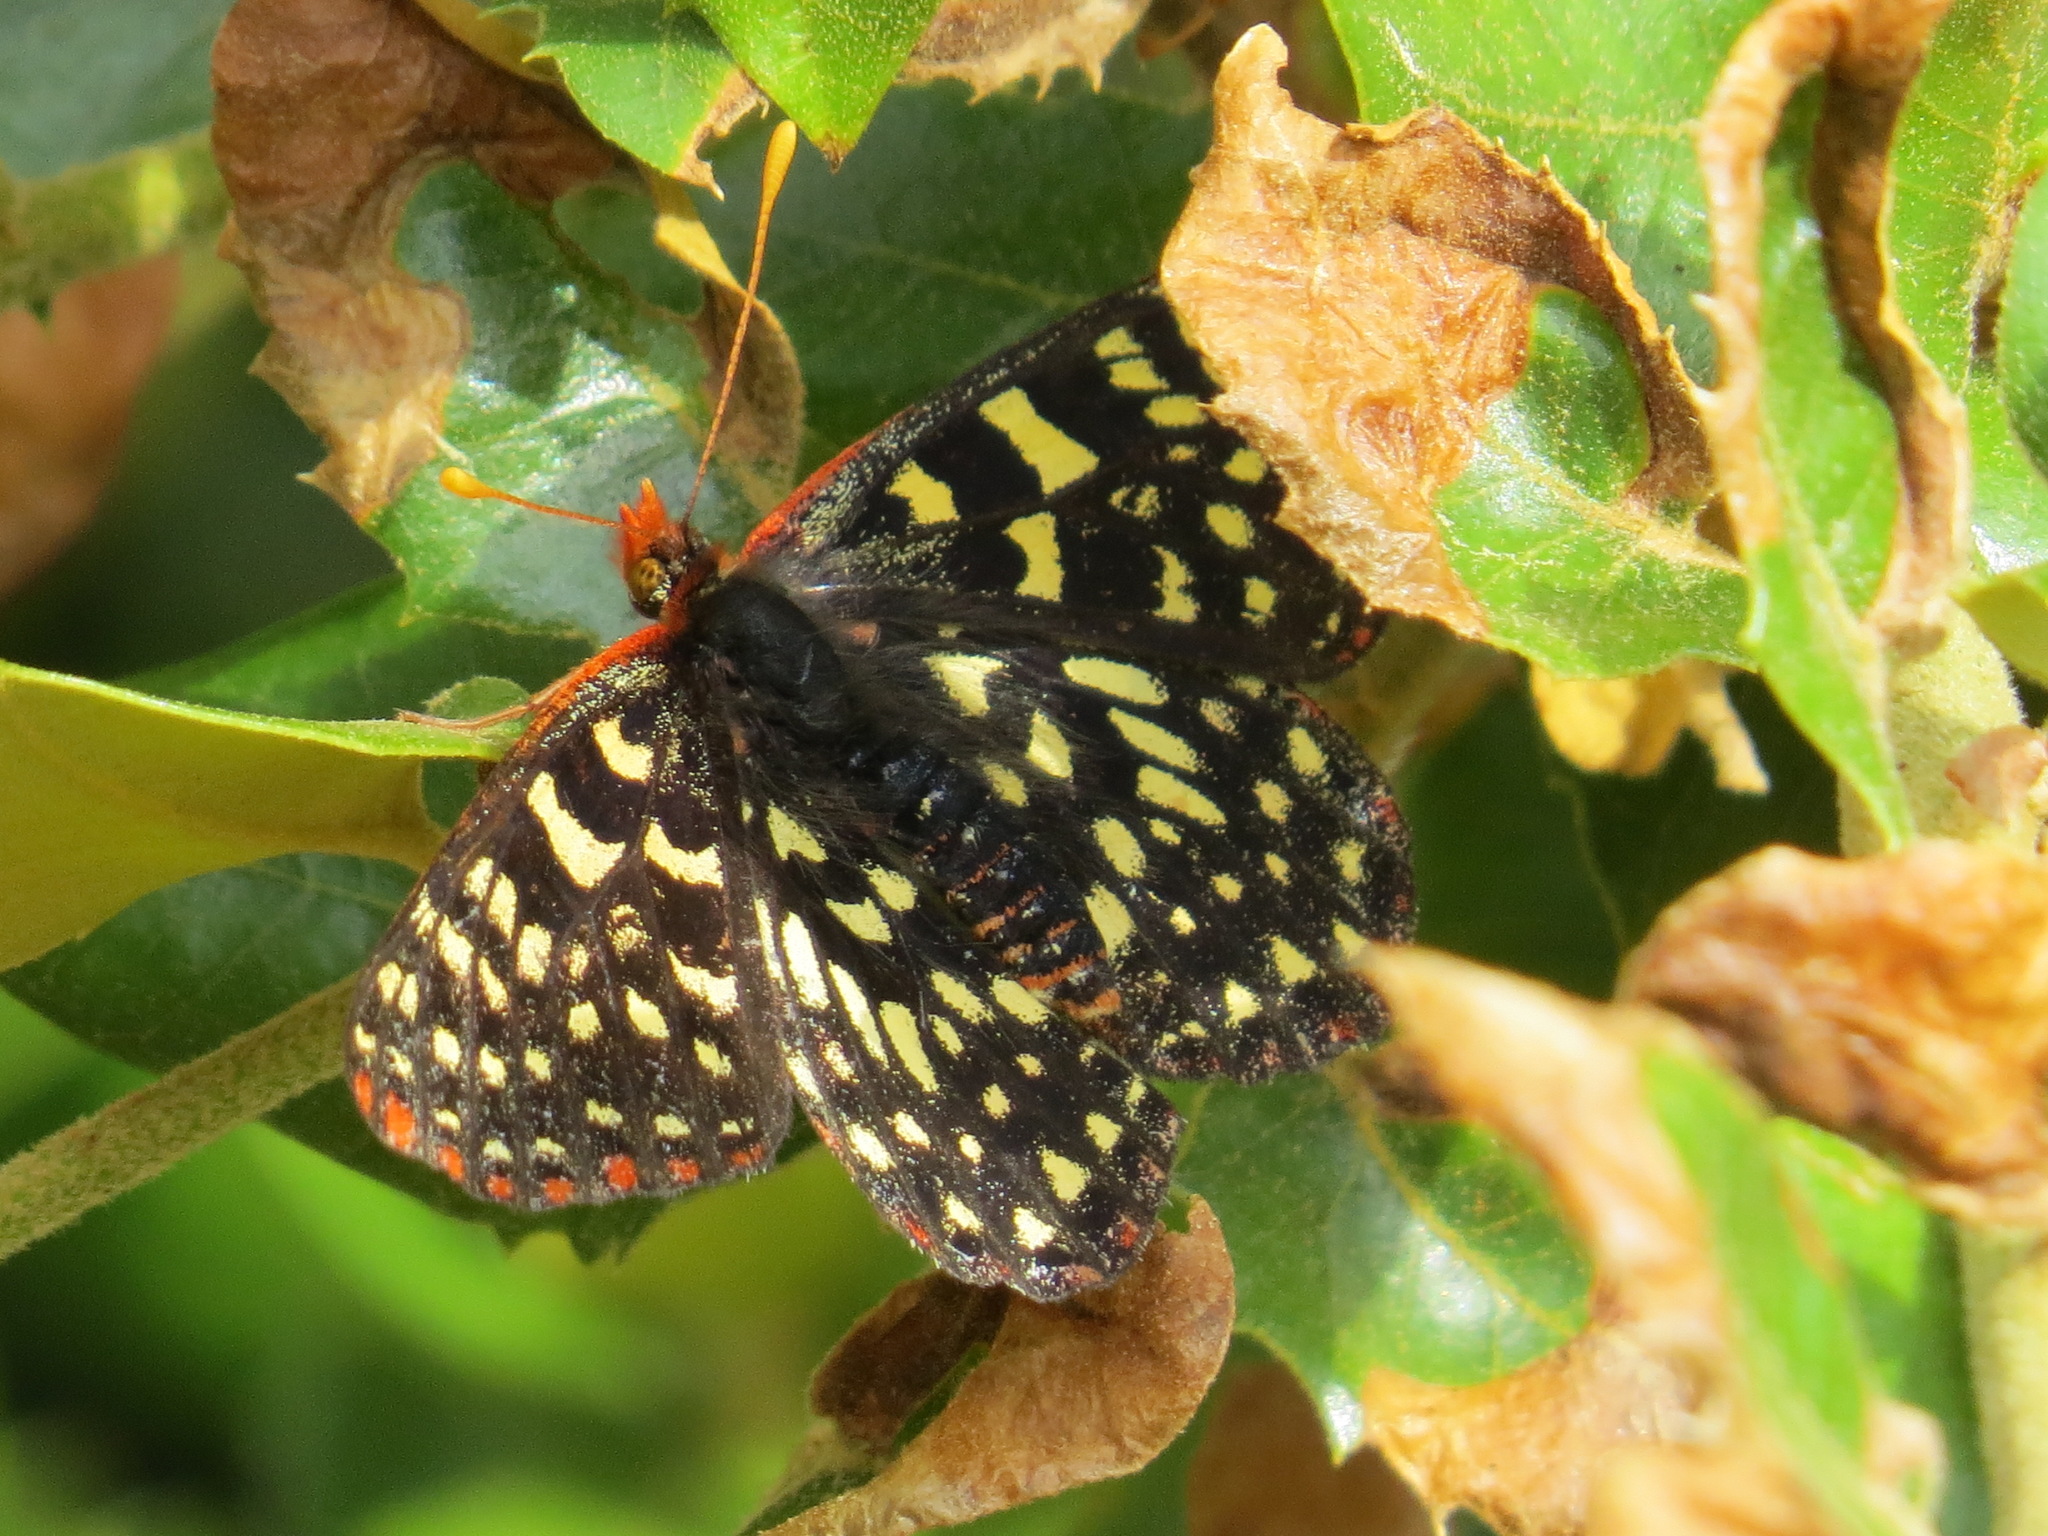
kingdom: Animalia
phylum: Arthropoda
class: Insecta
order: Lepidoptera
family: Nymphalidae
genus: Occidryas
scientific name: Occidryas chalcedona
